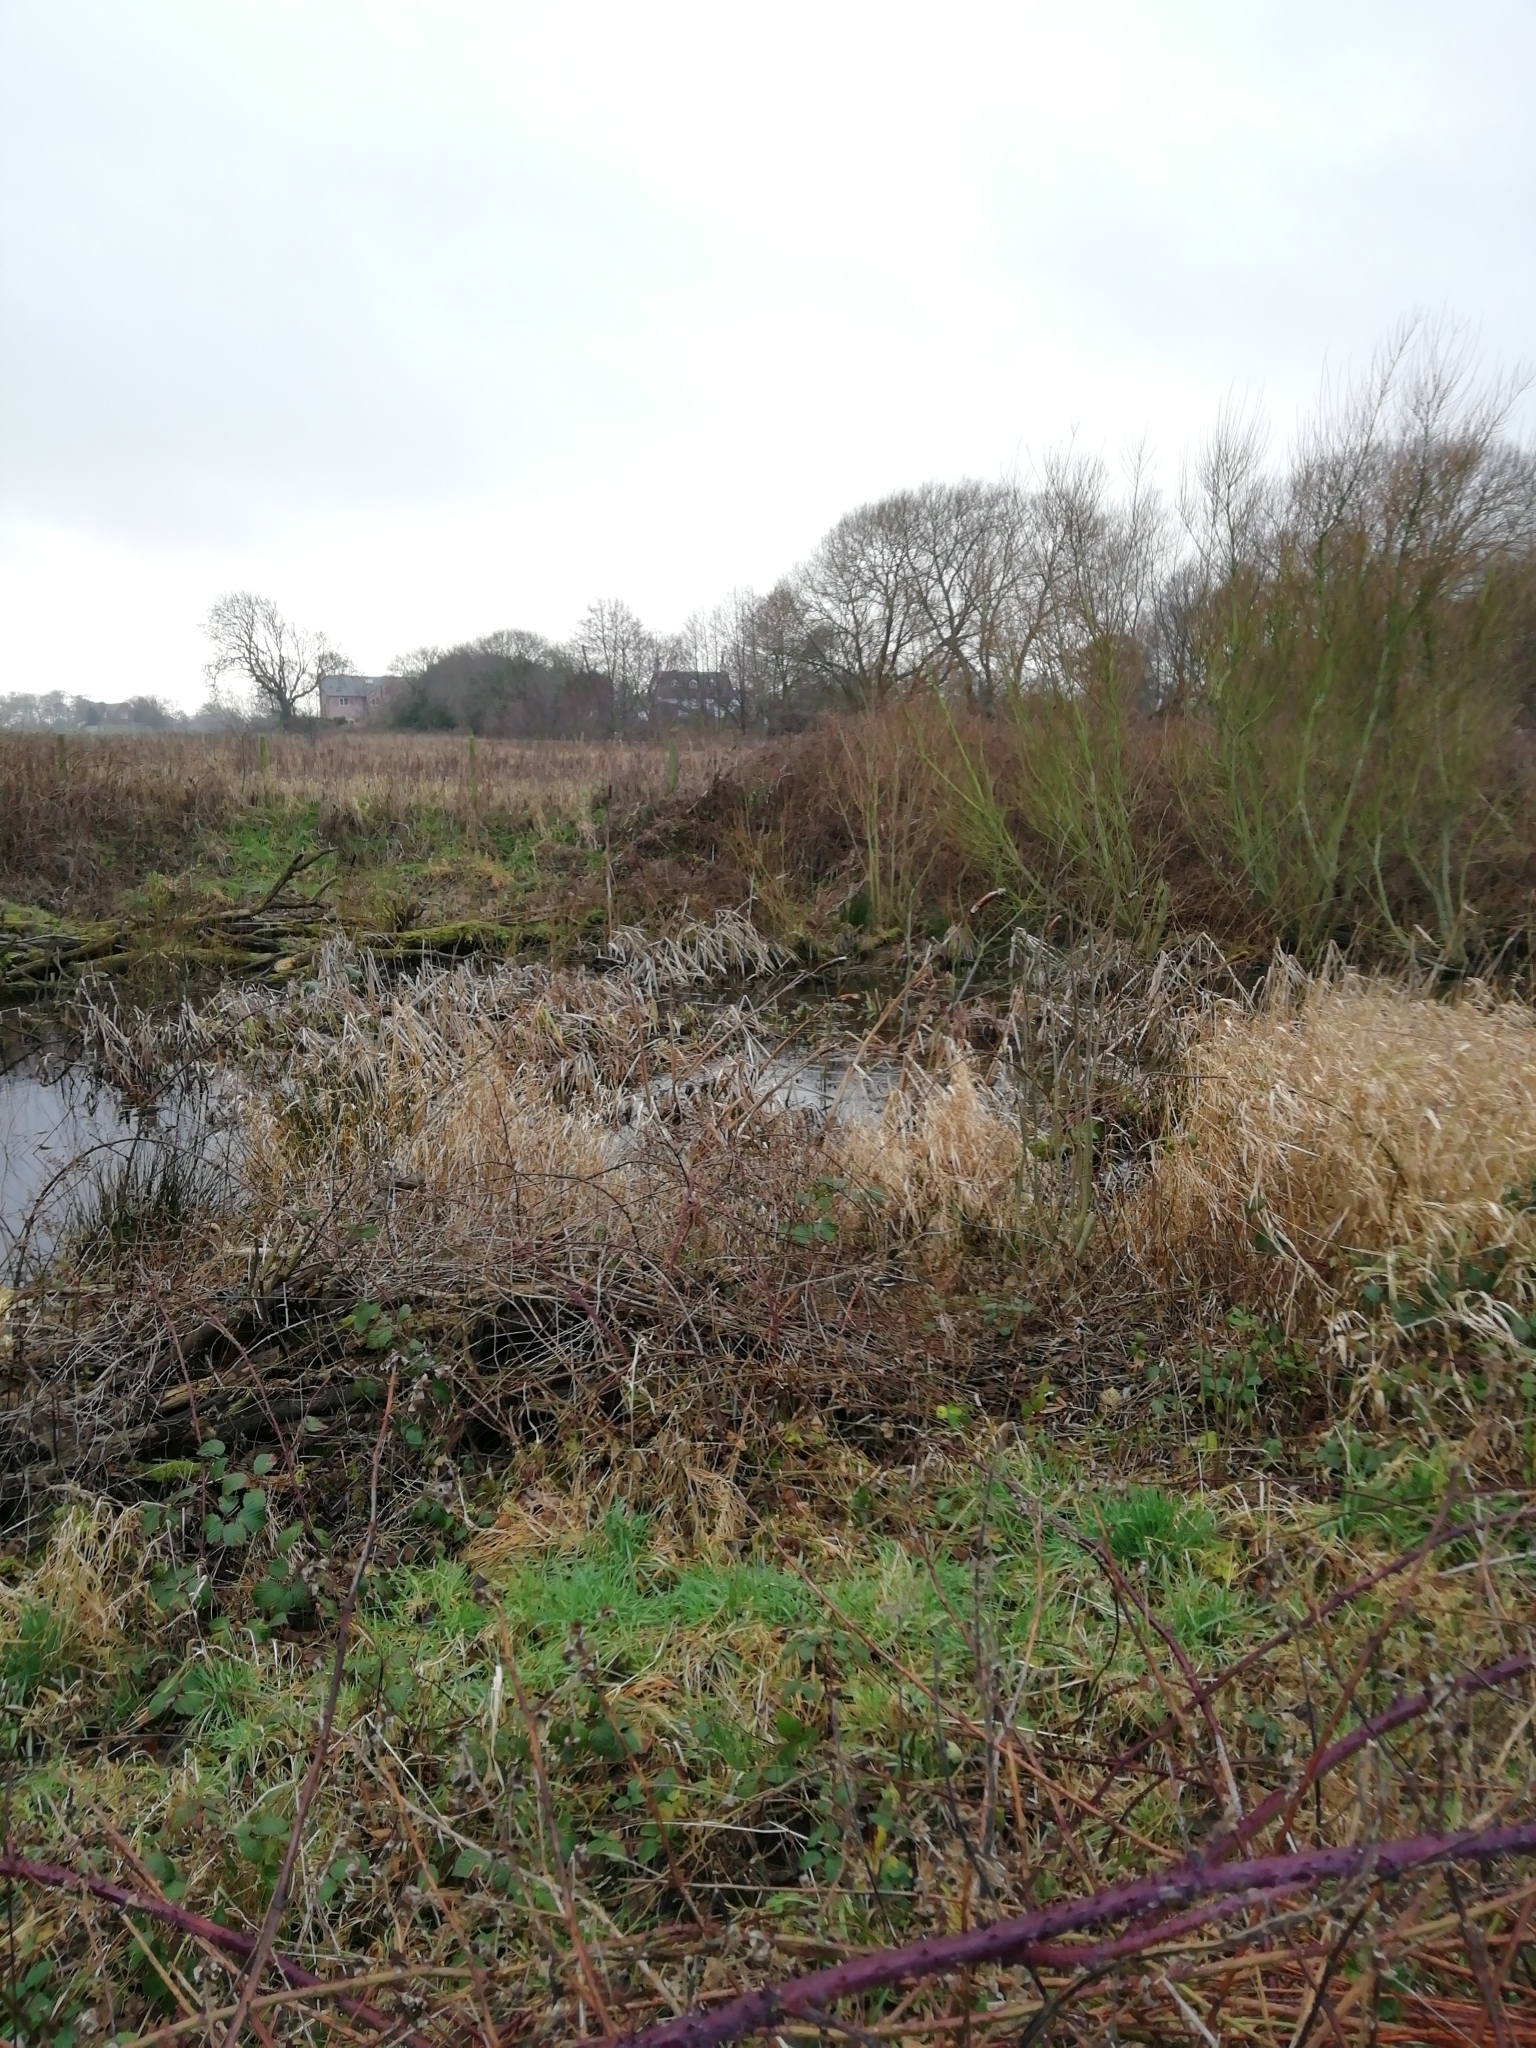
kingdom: Plantae
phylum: Tracheophyta
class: Liliopsida
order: Poales
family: Typhaceae
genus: Typha
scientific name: Typha latifolia
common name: Broadleaf cattail
